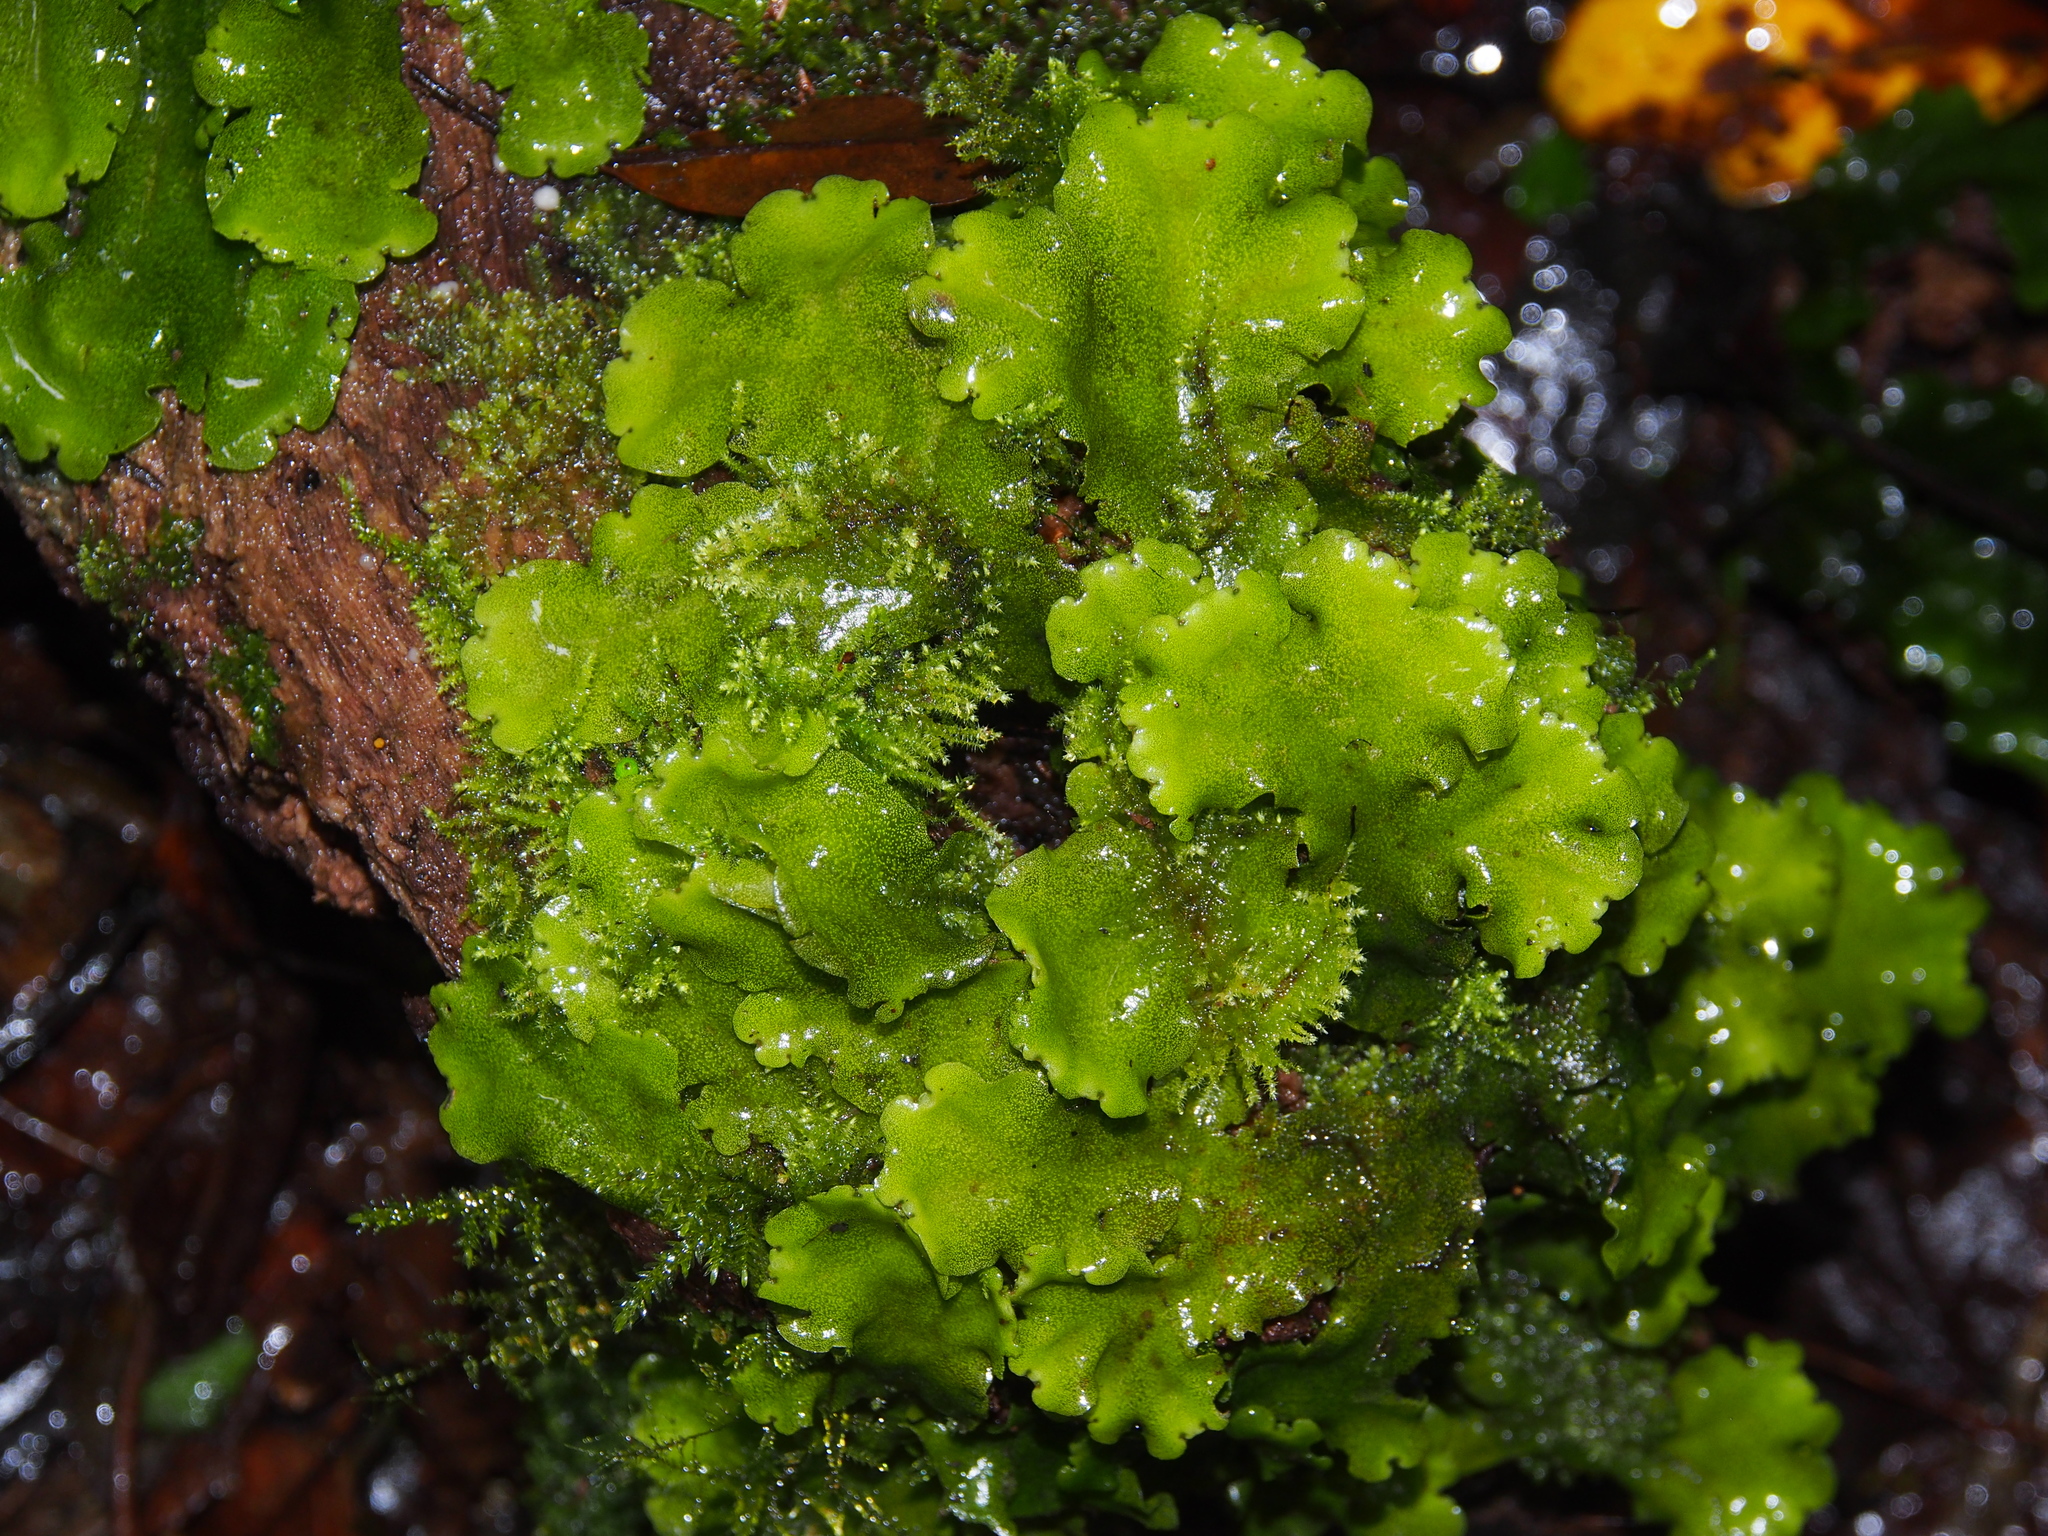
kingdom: Plantae
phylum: Marchantiophyta
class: Marchantiopsida
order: Marchantiales
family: Monocleaceae
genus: Monoclea
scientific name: Monoclea gottschei
